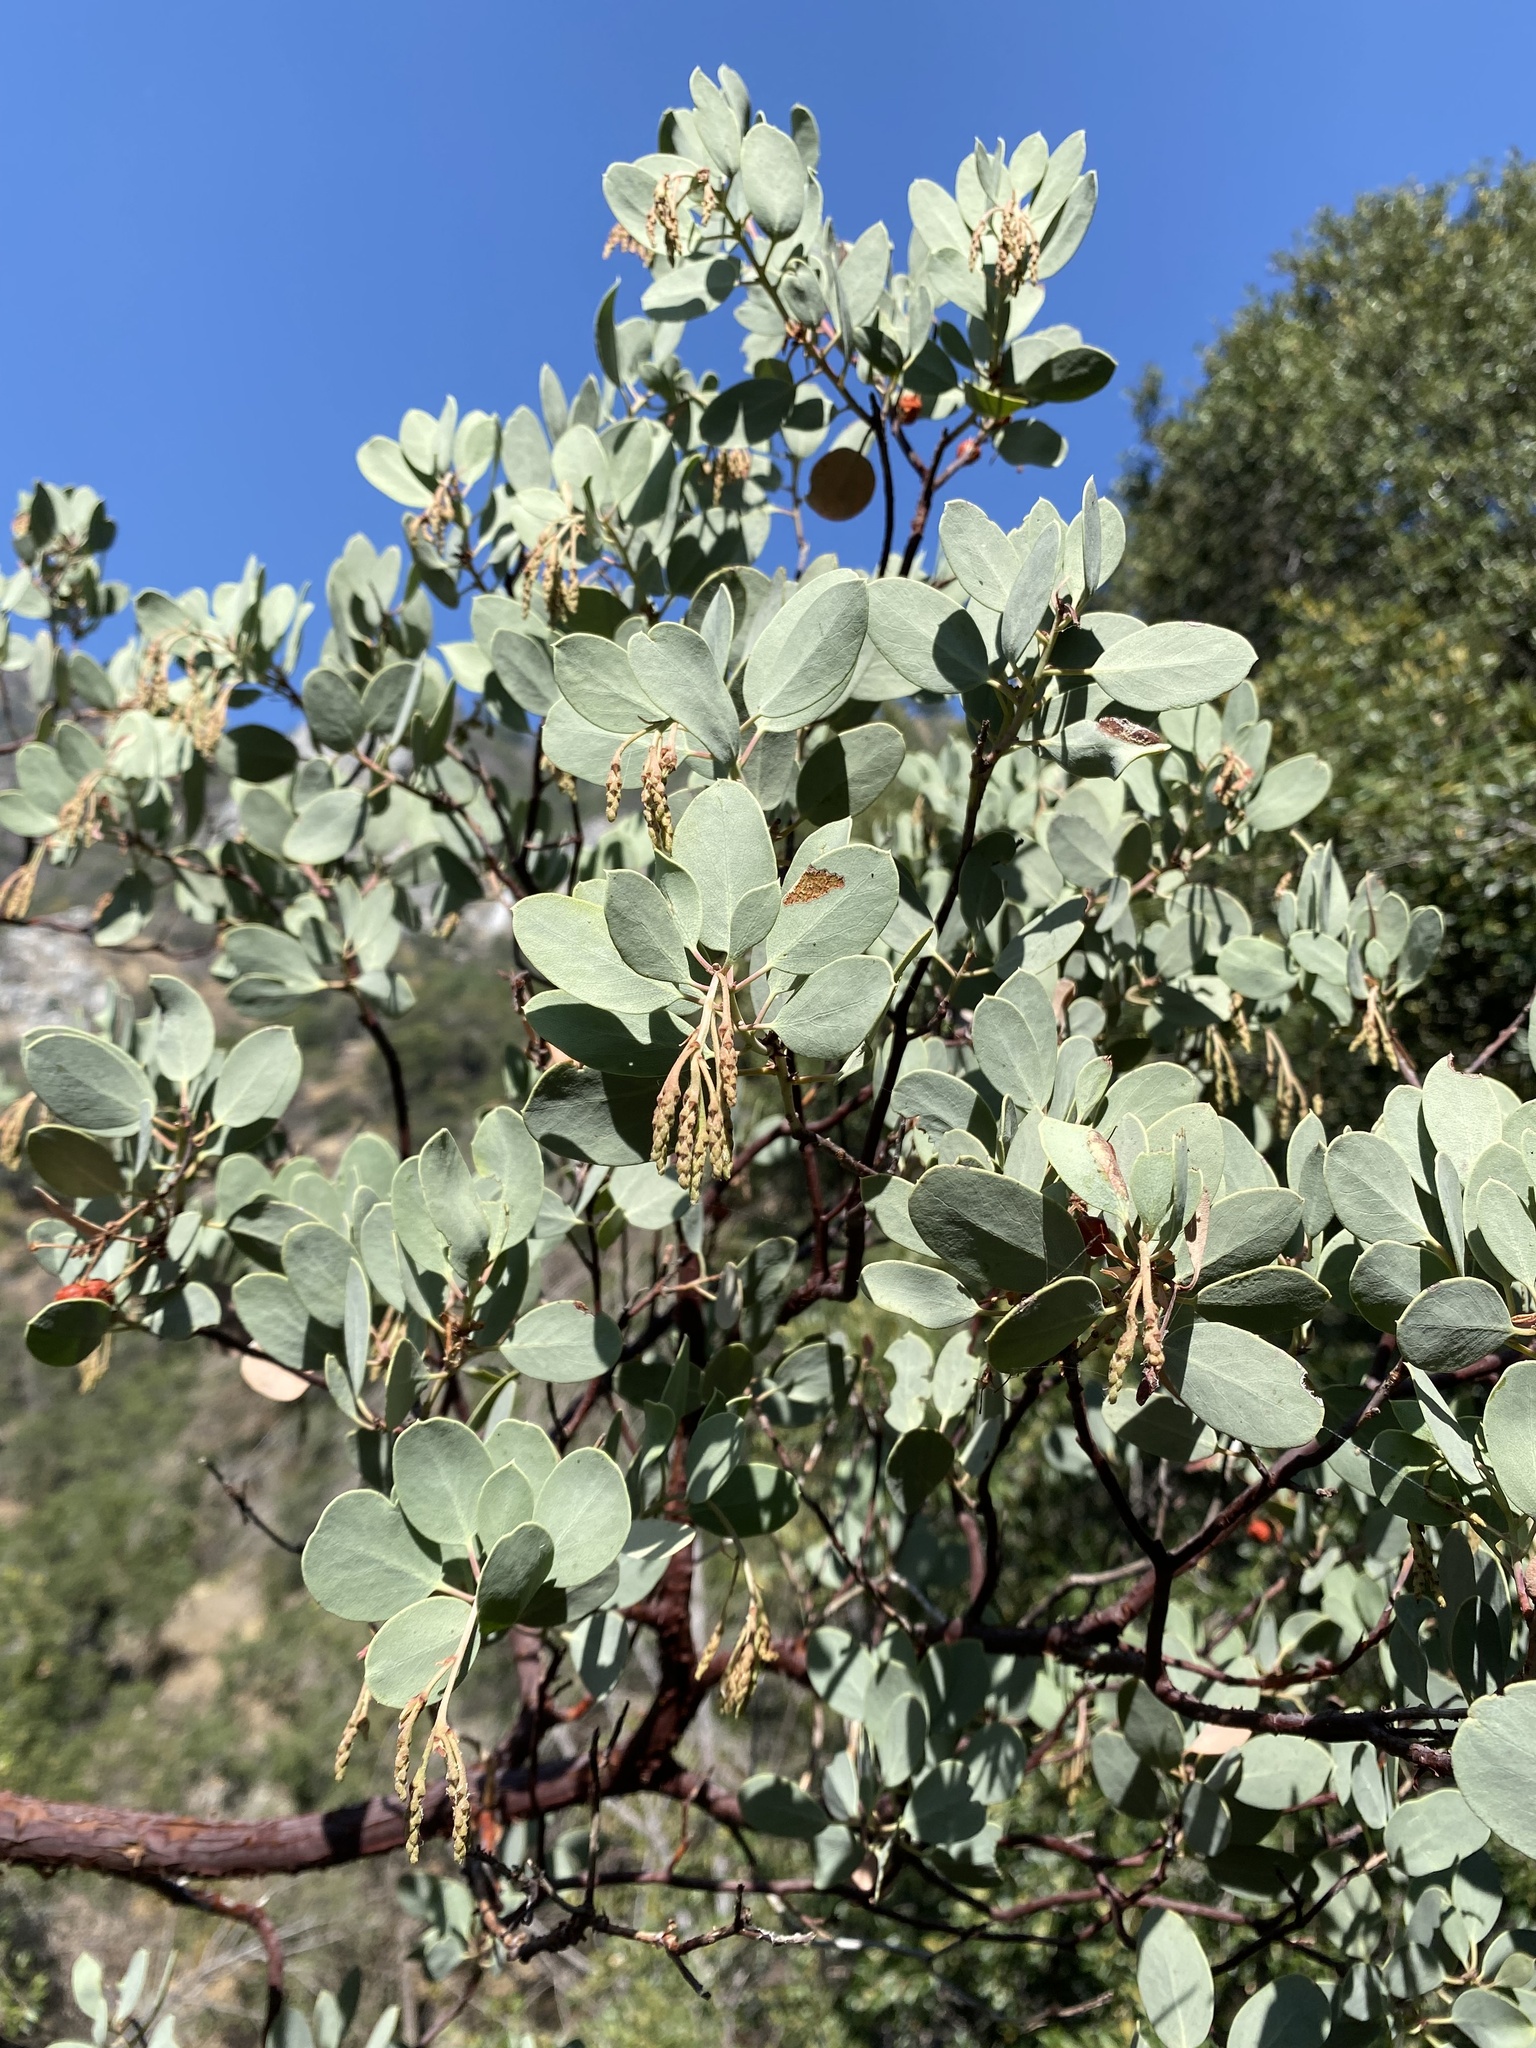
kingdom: Plantae
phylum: Tracheophyta
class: Magnoliopsida
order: Ericales
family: Ericaceae
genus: Arctostaphylos
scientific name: Arctostaphylos viscida
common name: White-leaf manzanita
